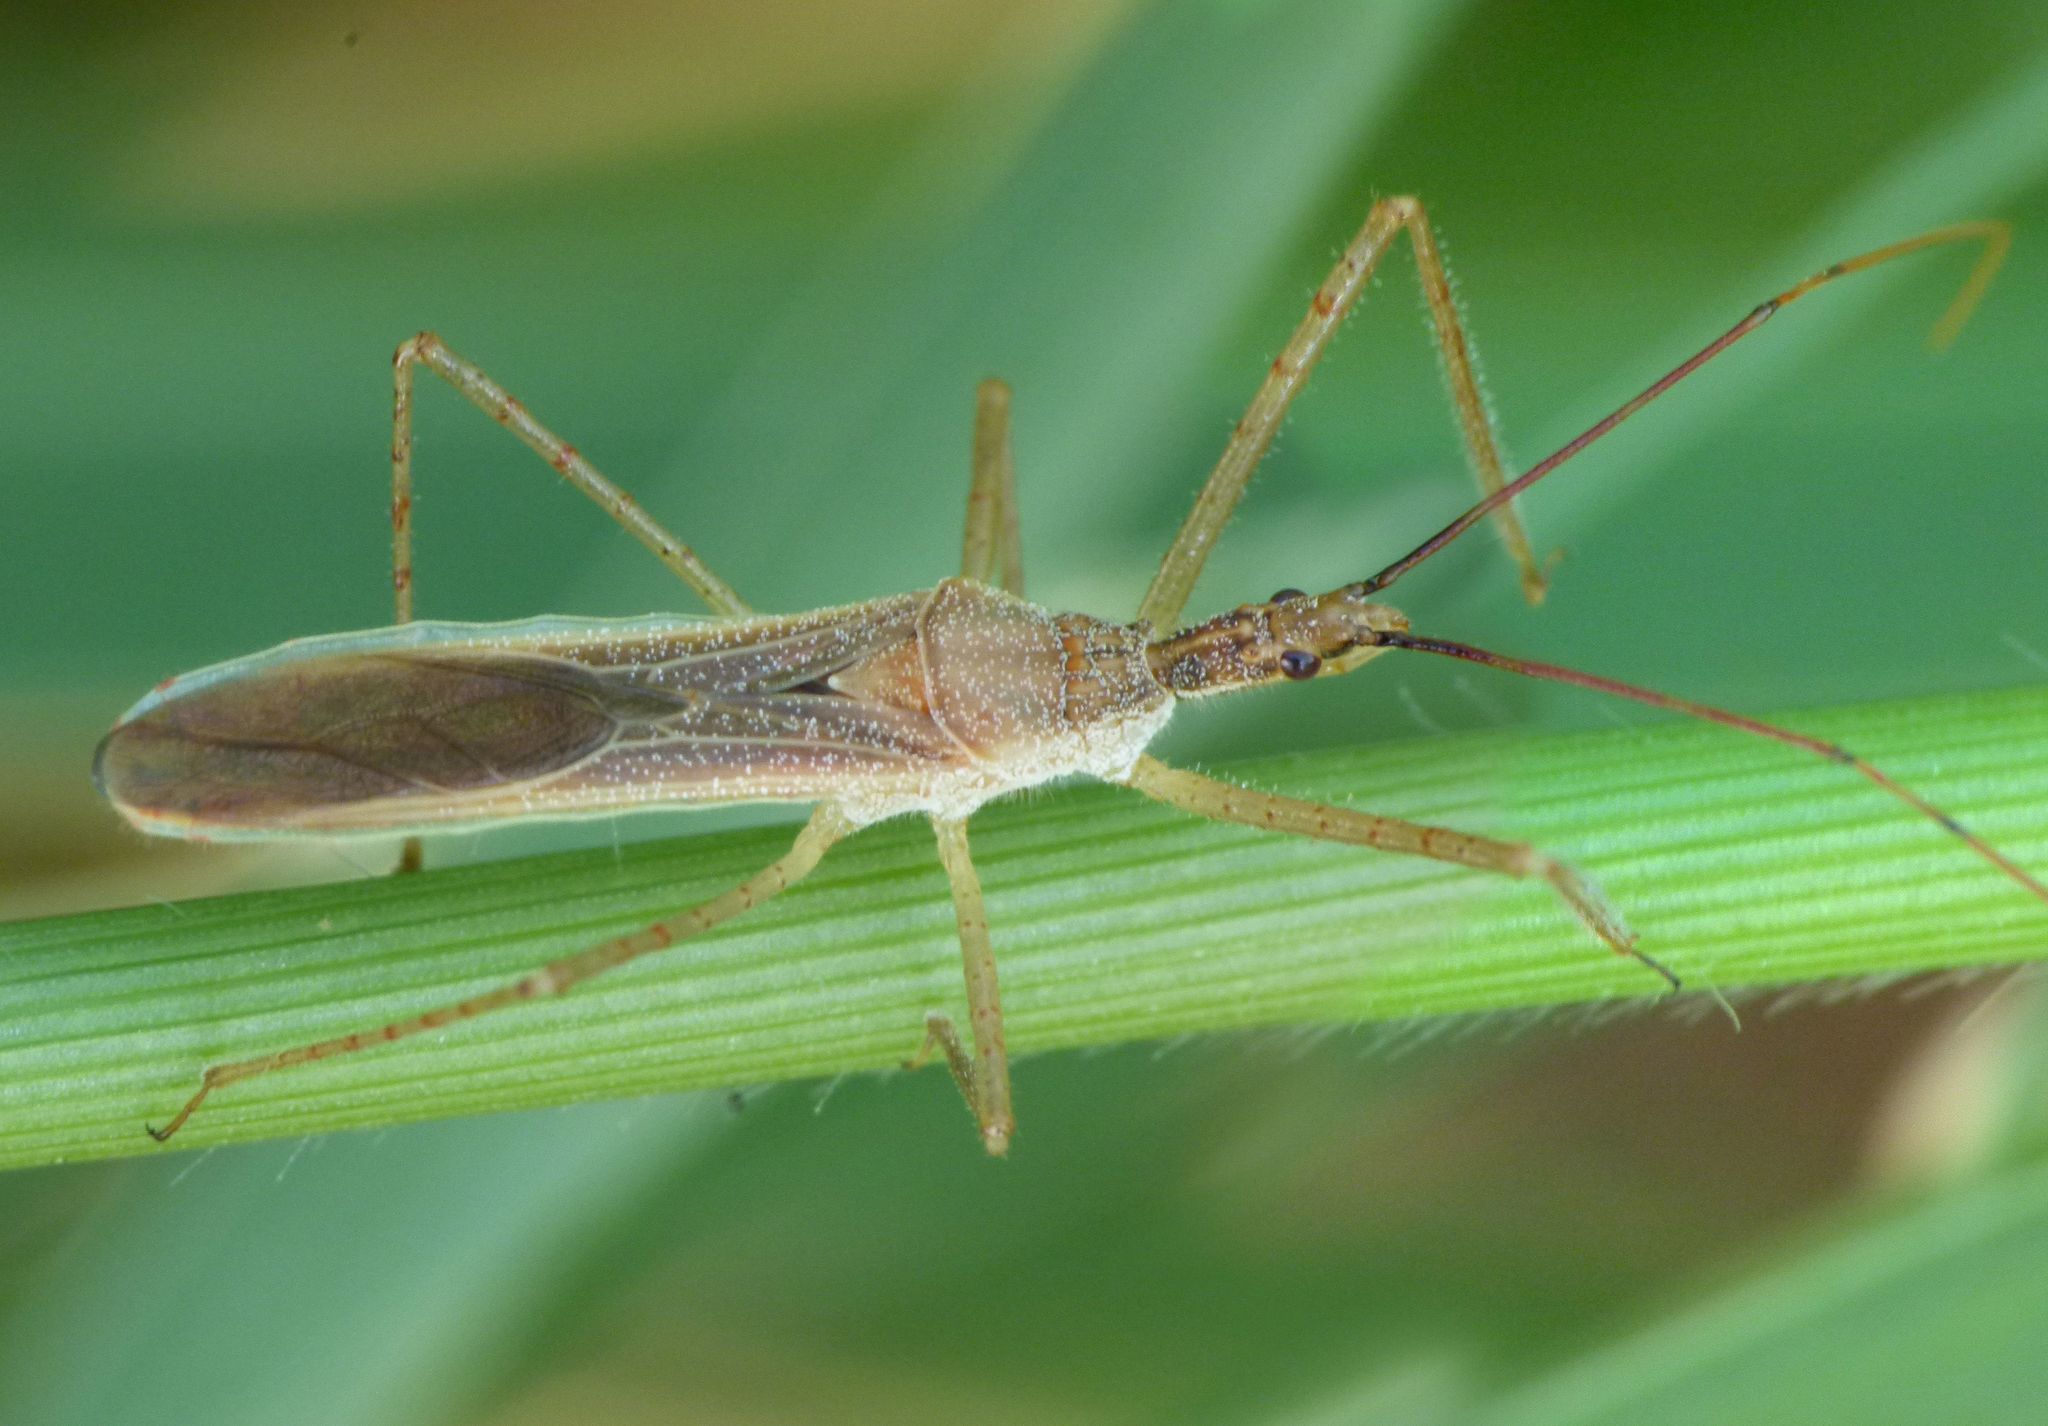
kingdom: Animalia
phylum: Arthropoda
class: Insecta
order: Hemiptera
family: Reduviidae
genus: Zelus
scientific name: Zelus cervicalis
